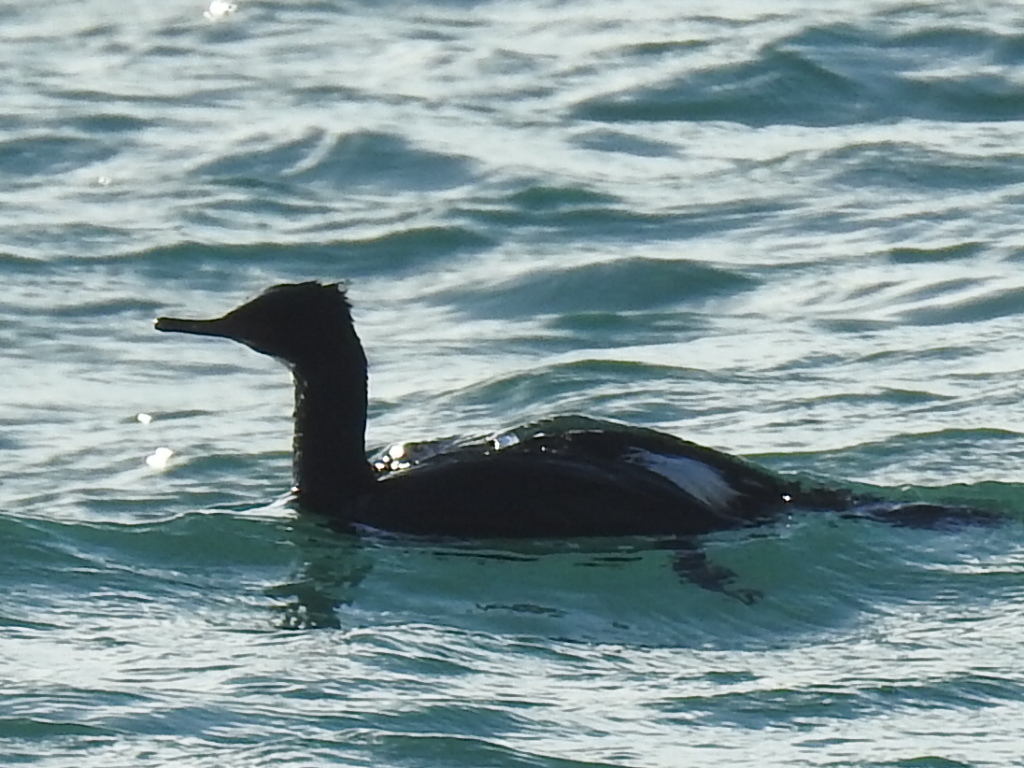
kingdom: Animalia
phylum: Chordata
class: Aves
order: Suliformes
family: Phalacrocoracidae
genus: Phalacrocorax
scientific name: Phalacrocorax pelagicus
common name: Pelagic cormorant
